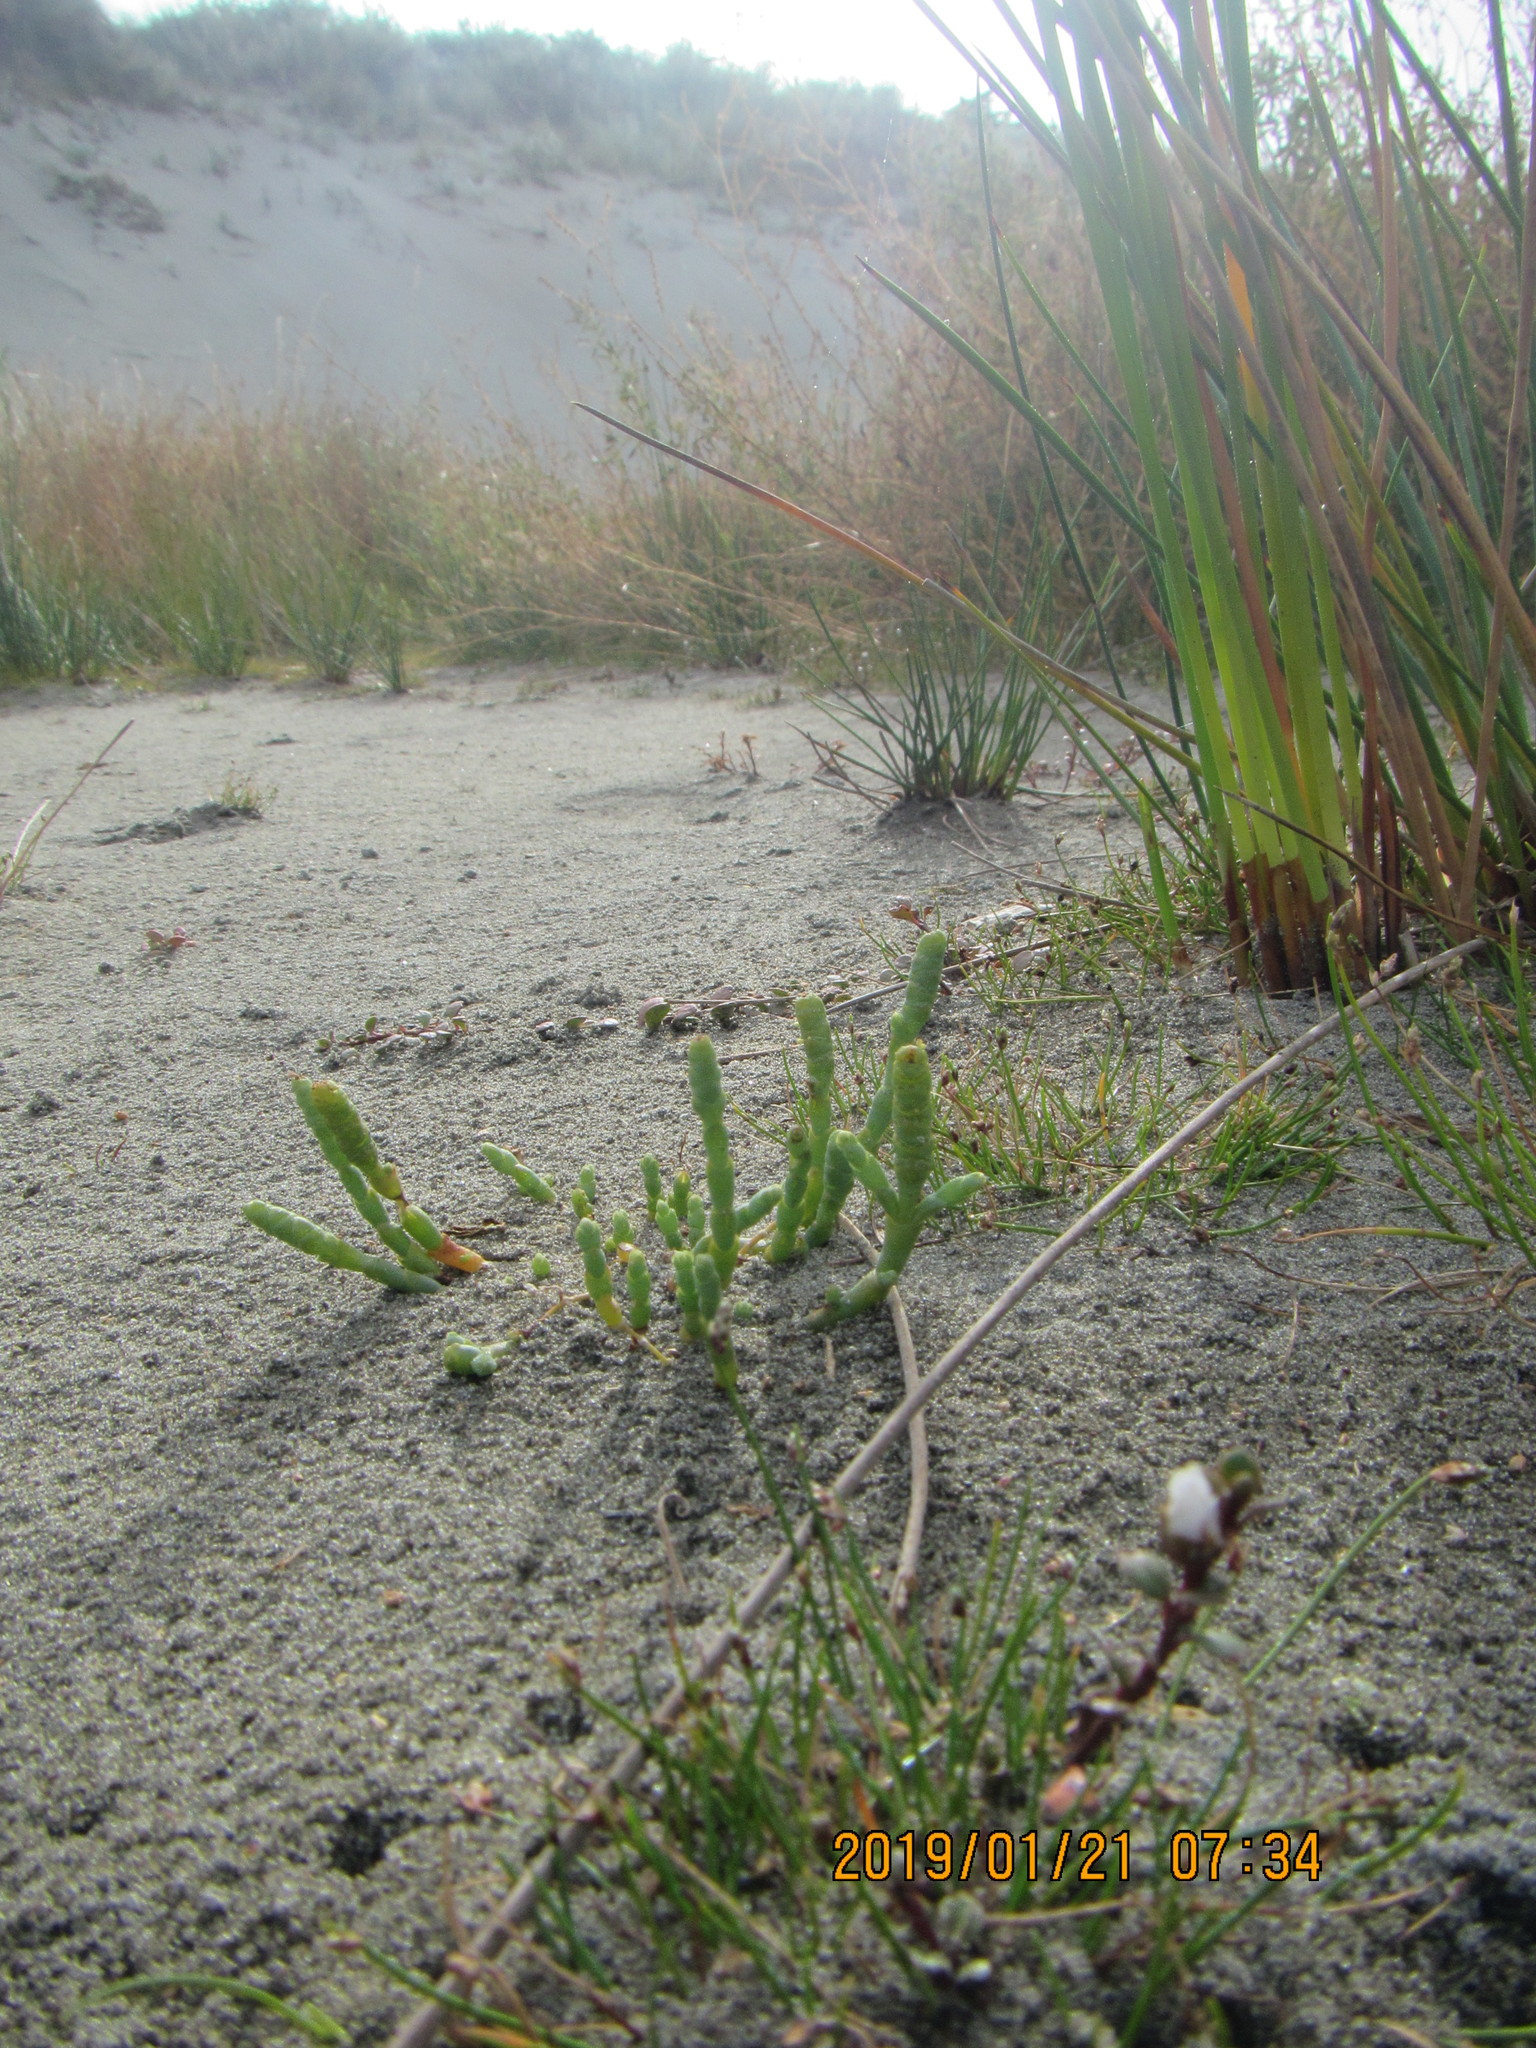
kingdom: Plantae
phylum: Tracheophyta
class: Magnoliopsida
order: Caryophyllales
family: Amaranthaceae
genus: Salicornia
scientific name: Salicornia quinqueflora
